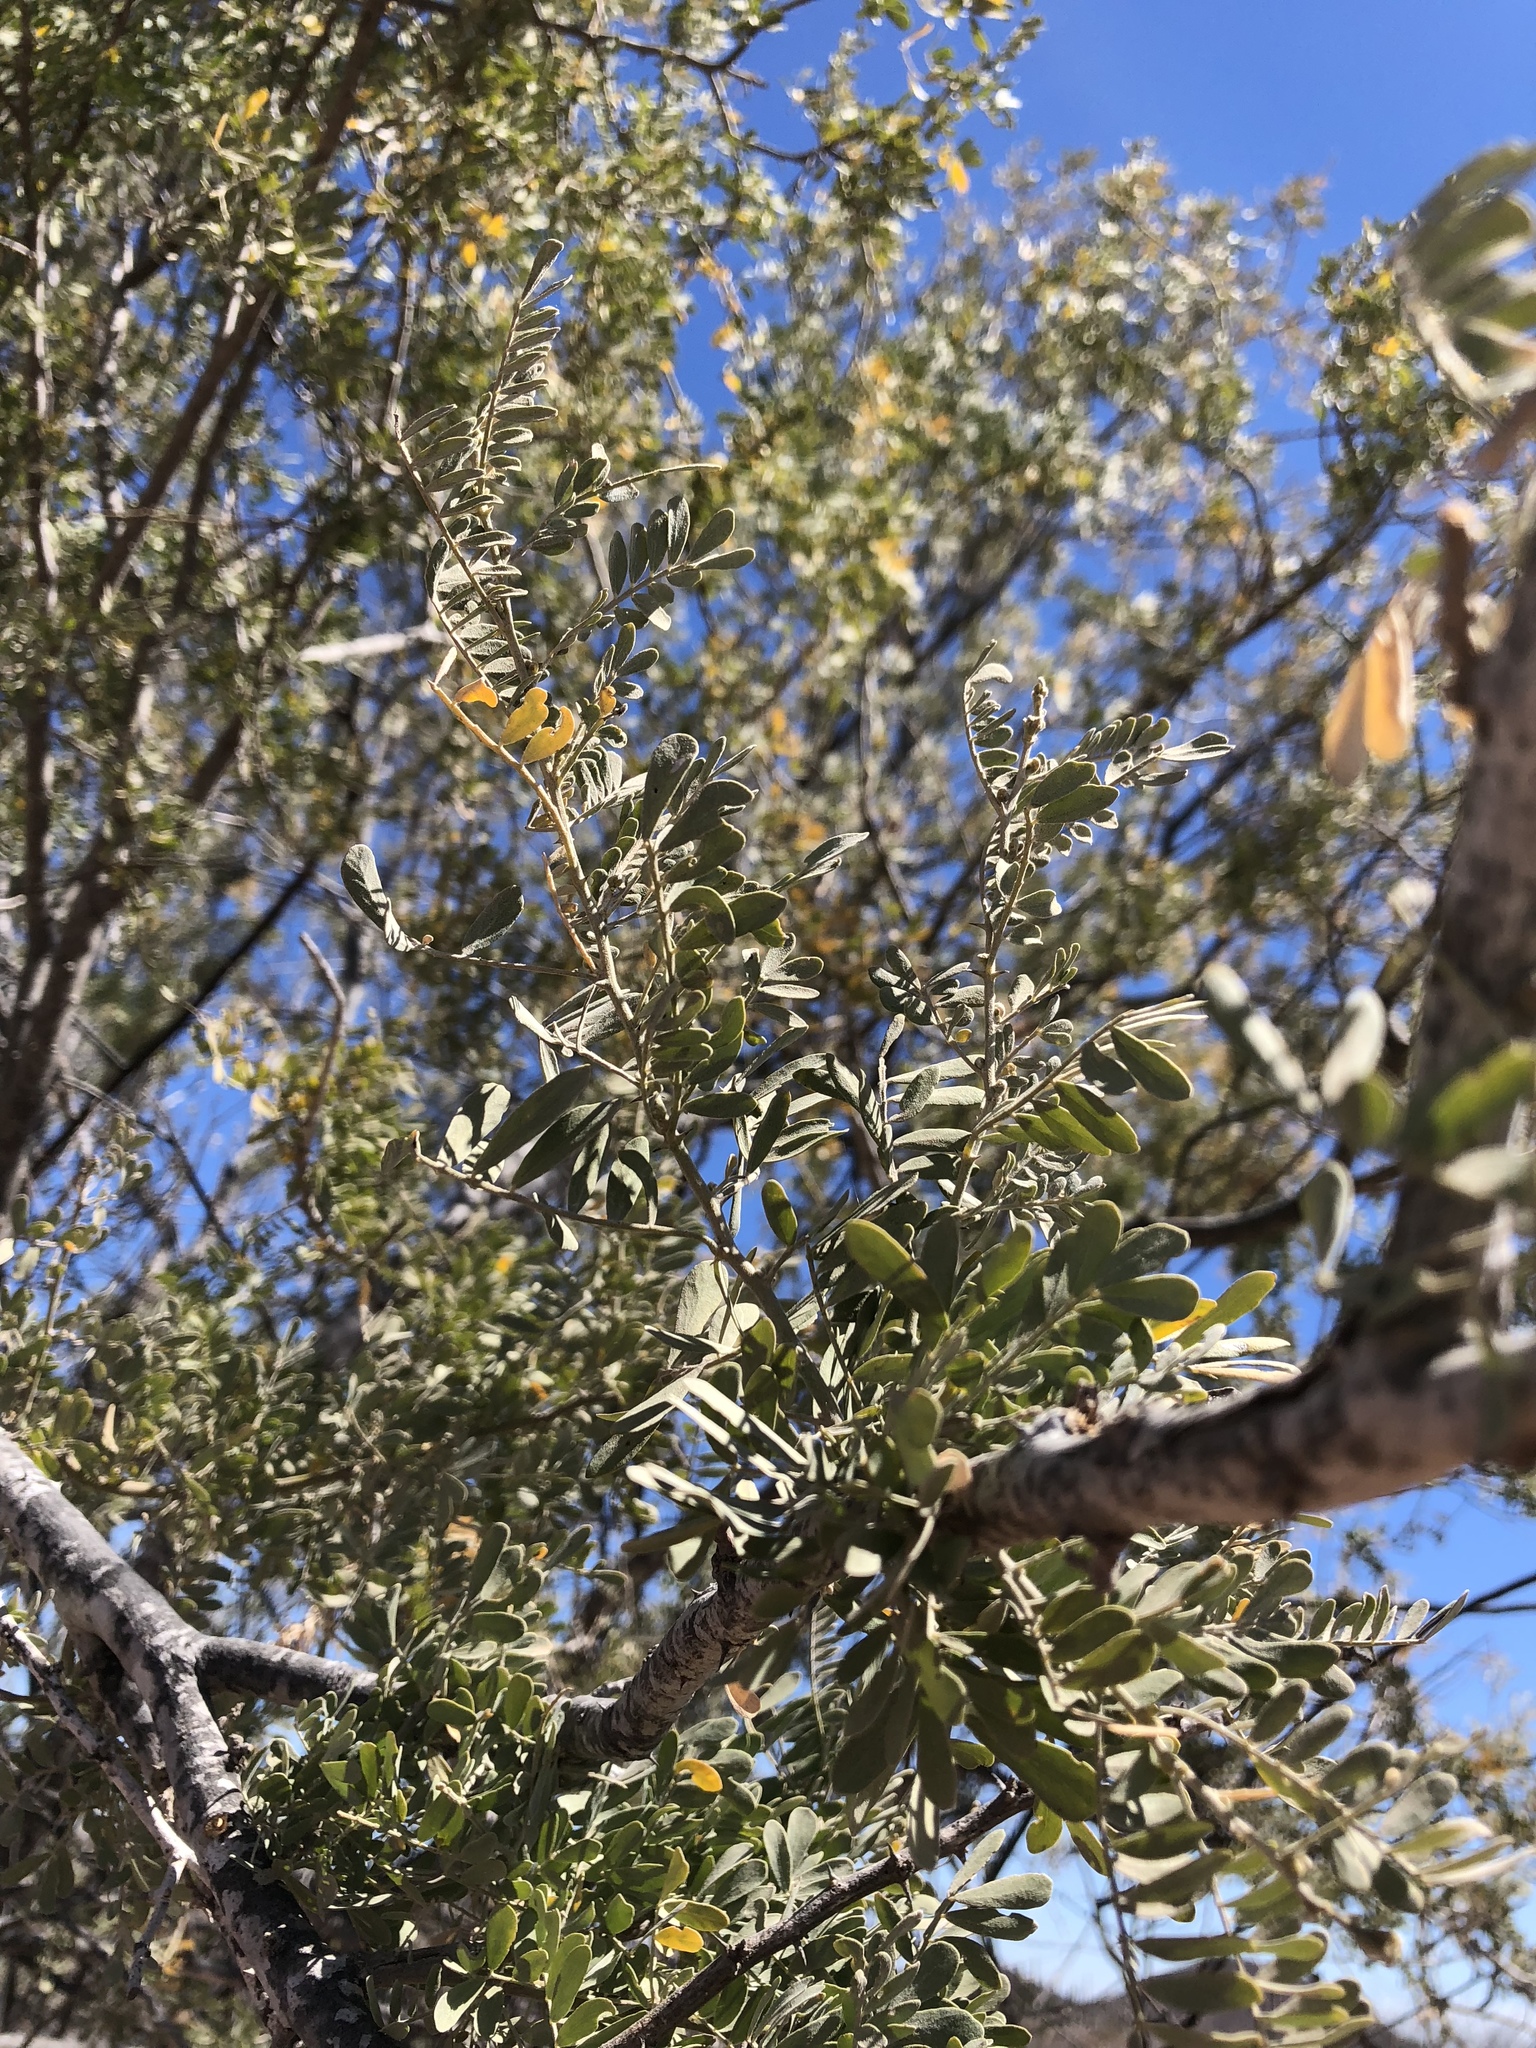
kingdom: Plantae
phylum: Tracheophyta
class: Magnoliopsida
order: Fabales
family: Fabaceae
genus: Olneya
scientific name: Olneya tesota
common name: Desert ironwood
